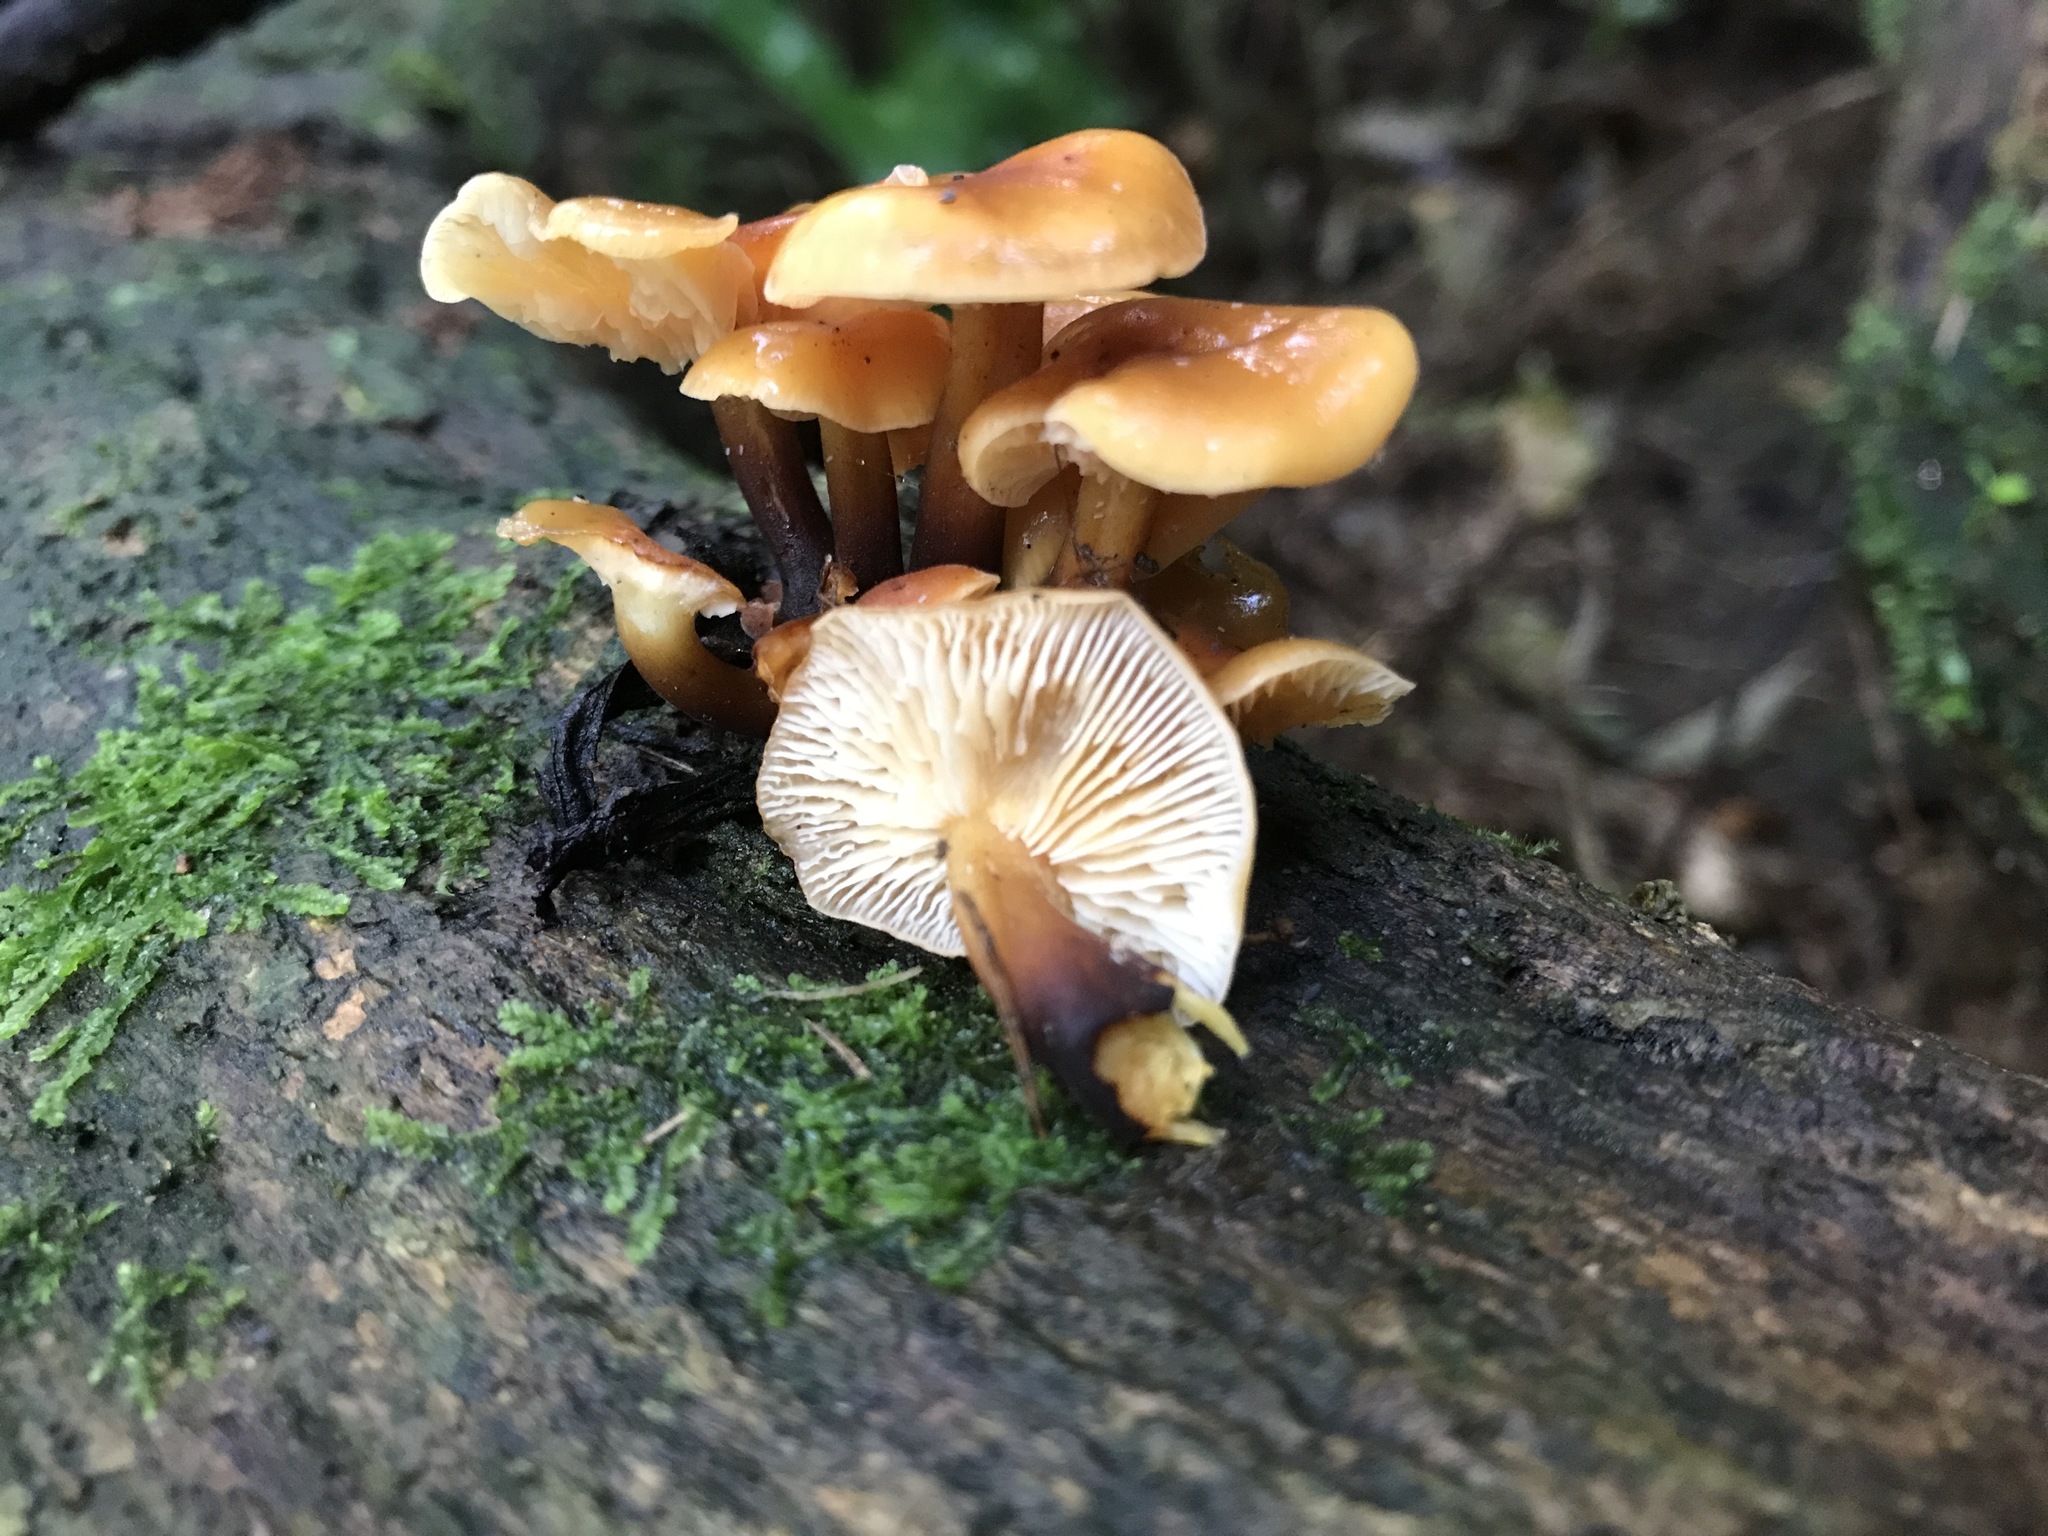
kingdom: Fungi
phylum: Basidiomycota
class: Agaricomycetes
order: Agaricales
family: Physalacriaceae
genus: Flammulina
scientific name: Flammulina velutipes
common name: Velvet shank
